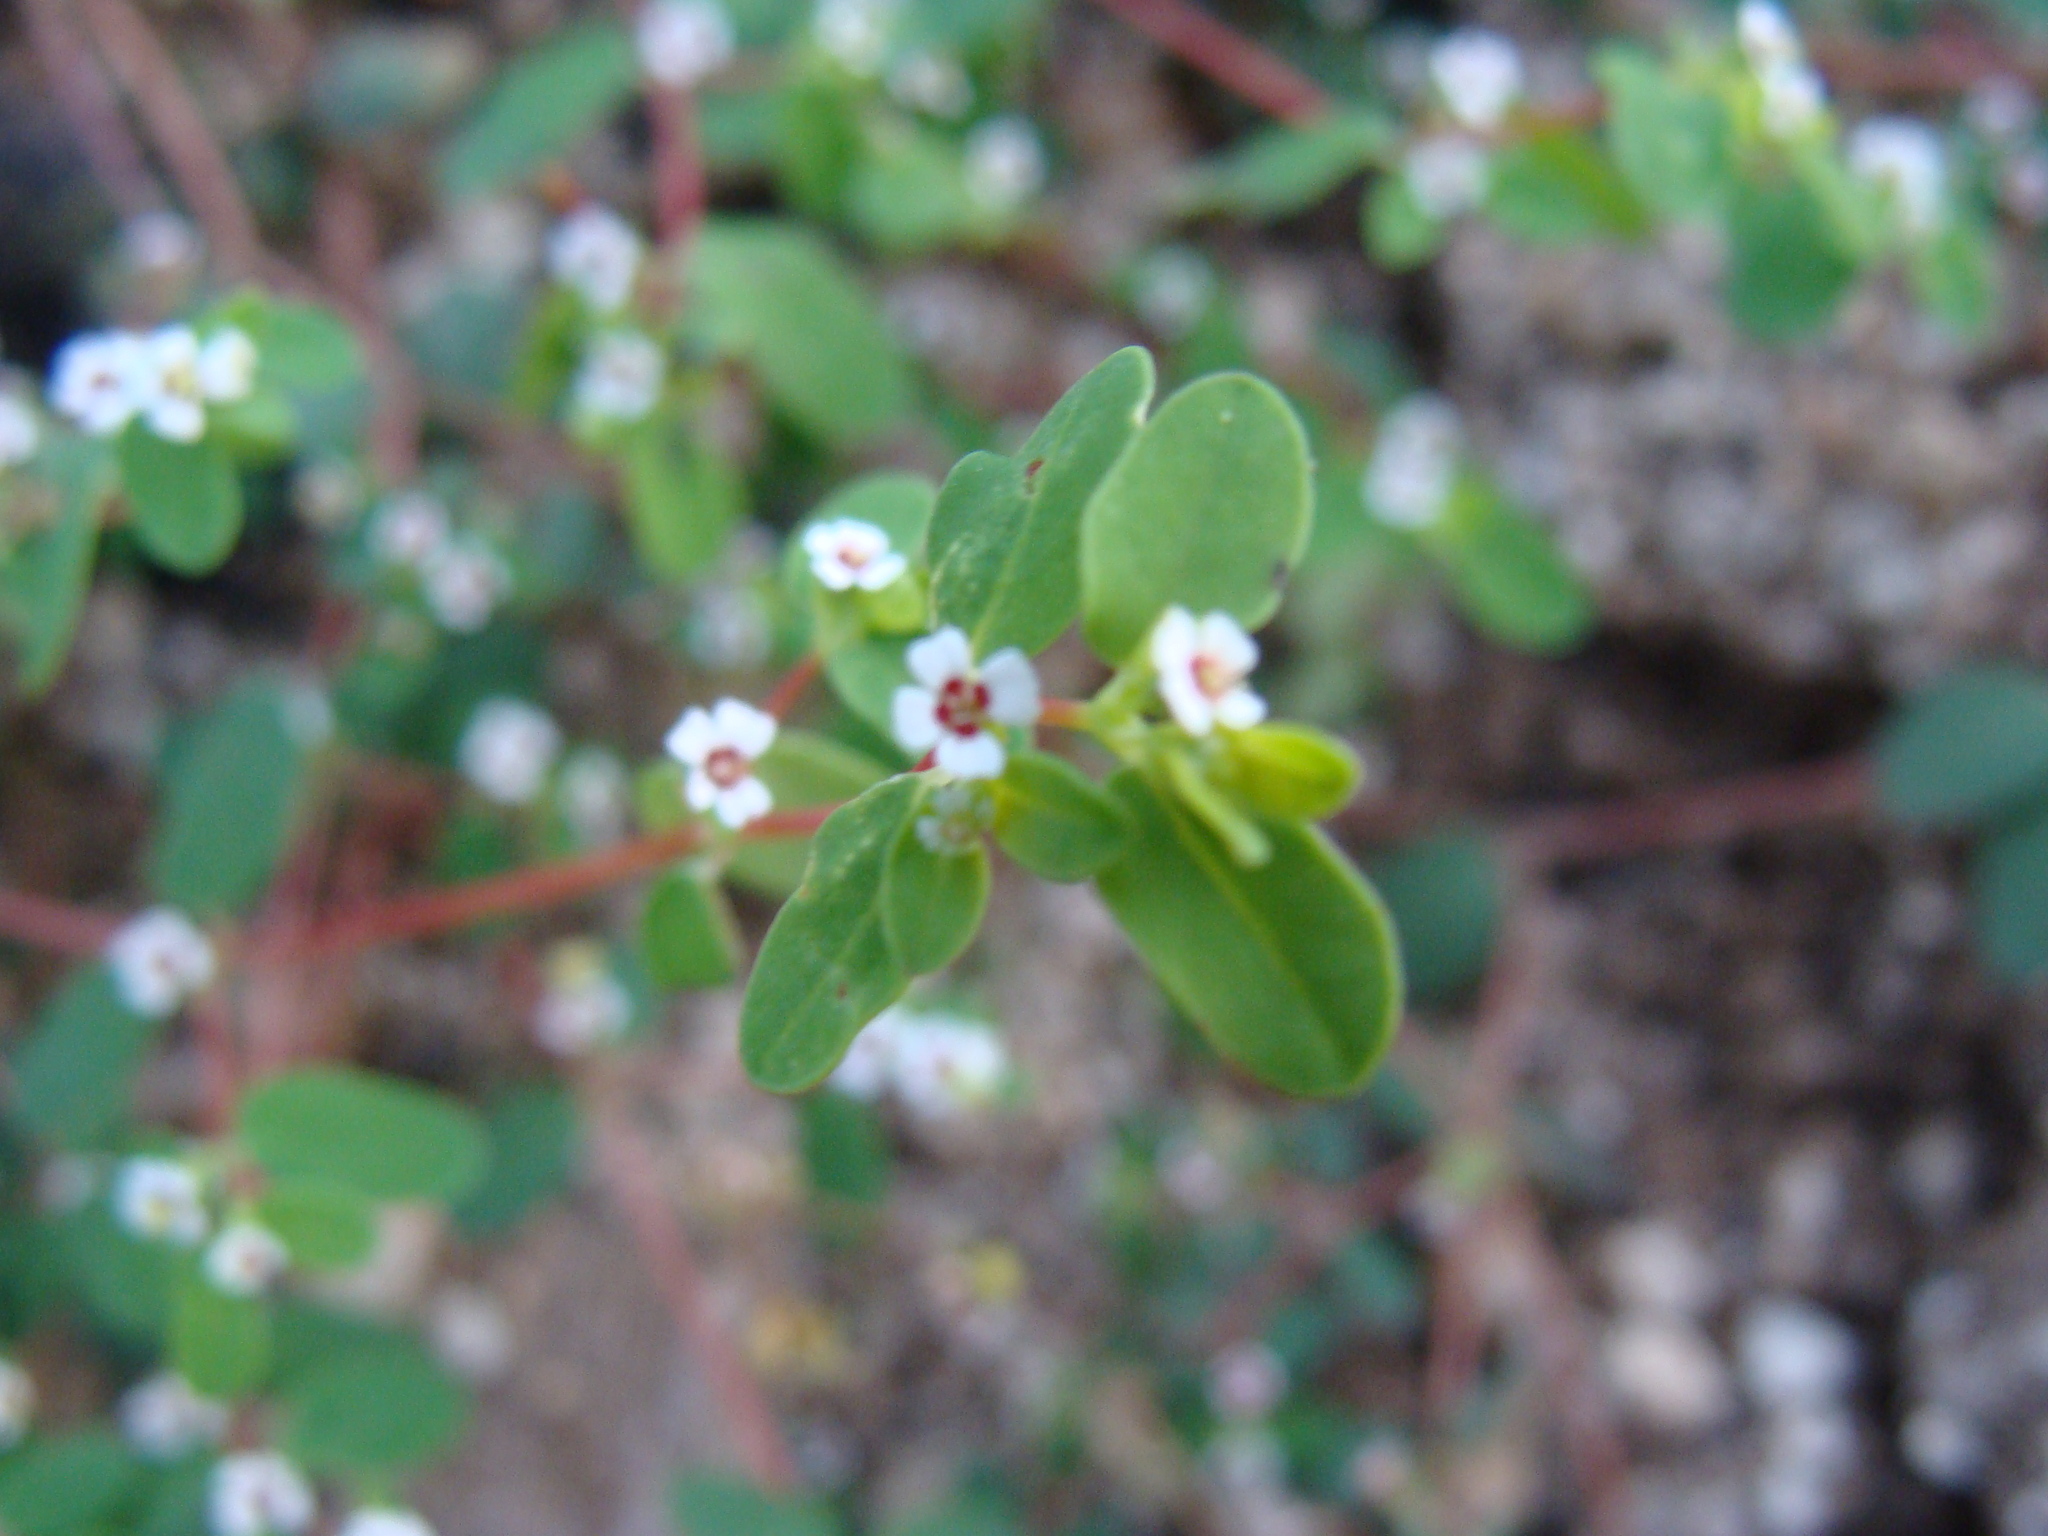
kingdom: Plantae
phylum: Tracheophyta
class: Magnoliopsida
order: Malpighiales
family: Euphorbiaceae
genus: Euphorbia
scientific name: Euphorbia polycarpa
